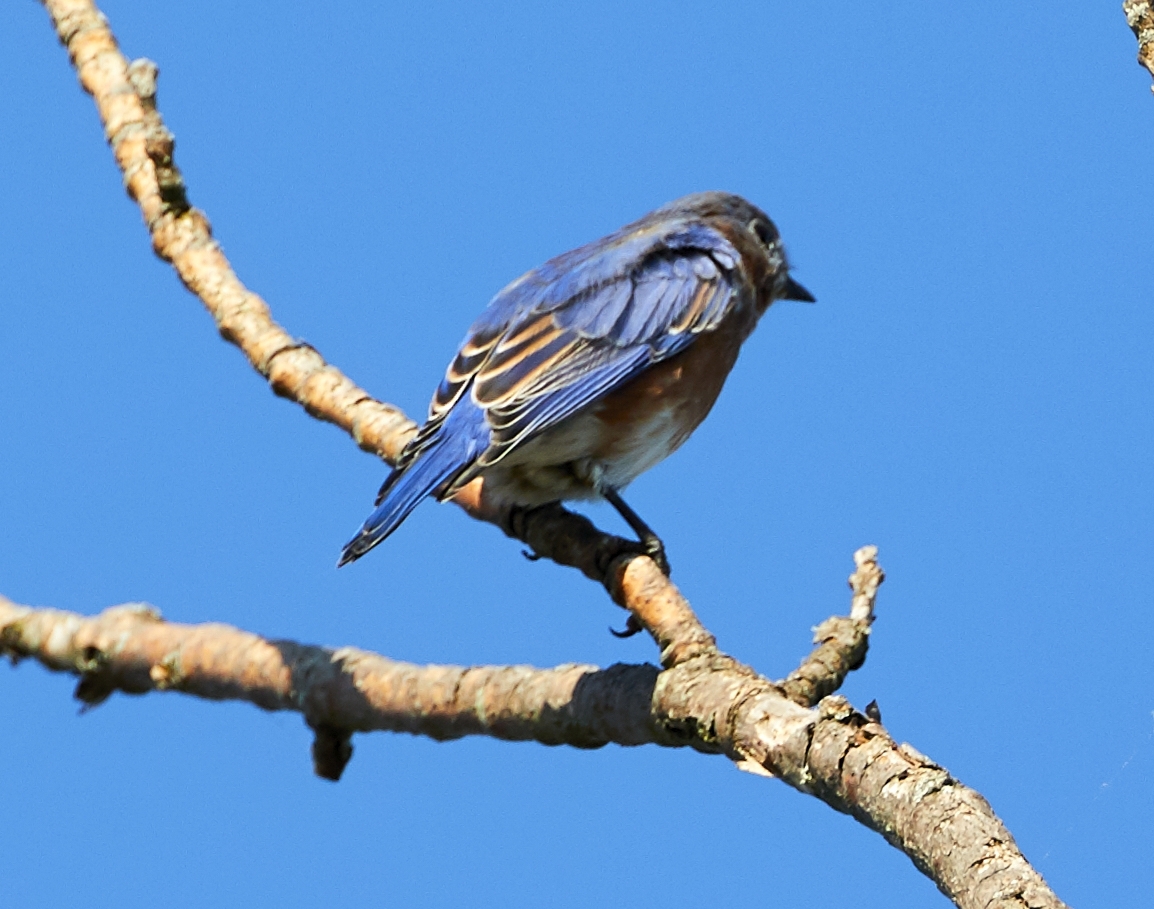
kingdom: Animalia
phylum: Chordata
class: Aves
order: Passeriformes
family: Turdidae
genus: Sialia
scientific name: Sialia sialis
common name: Eastern bluebird
